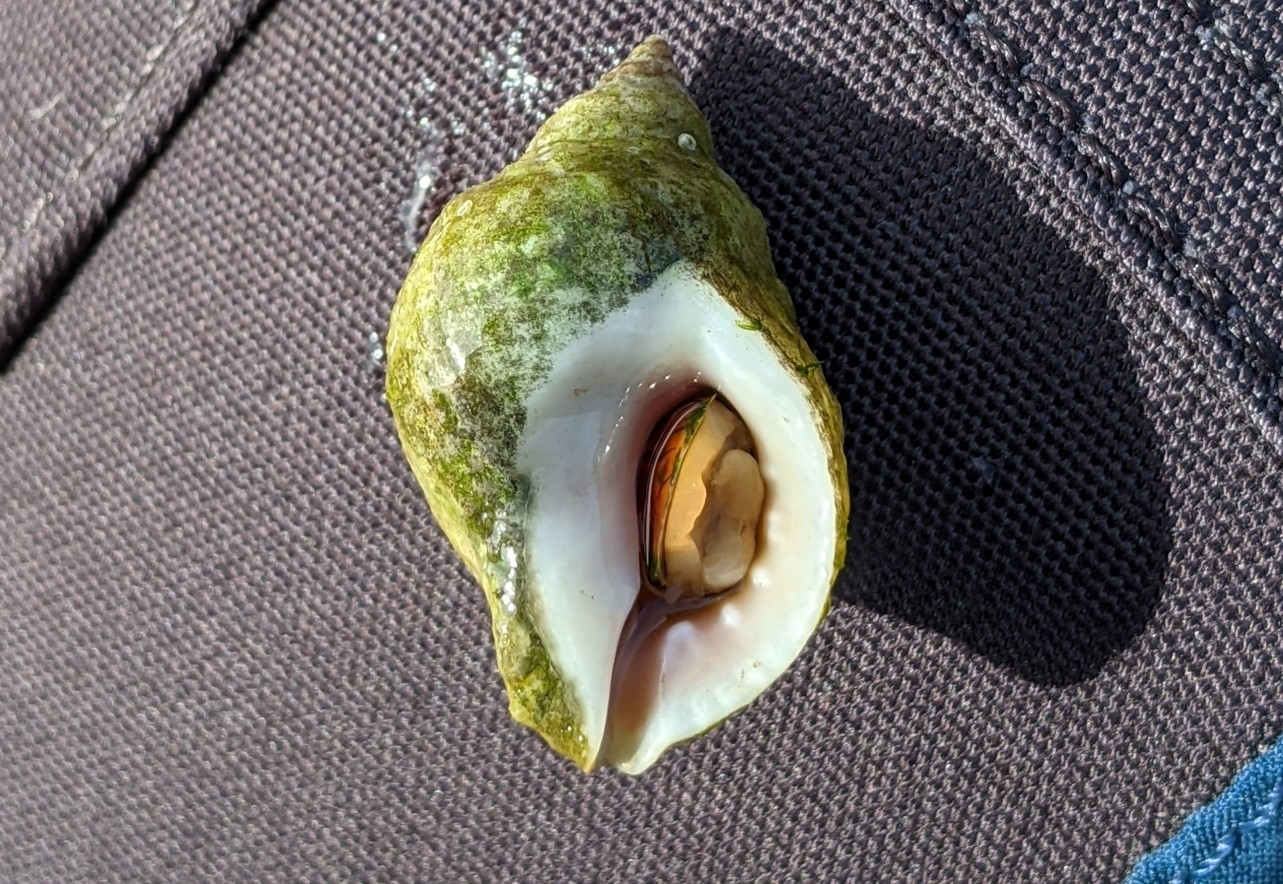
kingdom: Animalia
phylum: Mollusca
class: Gastropoda
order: Neogastropoda
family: Muricidae
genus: Nucella
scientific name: Nucella lapillus
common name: Dog whelk
